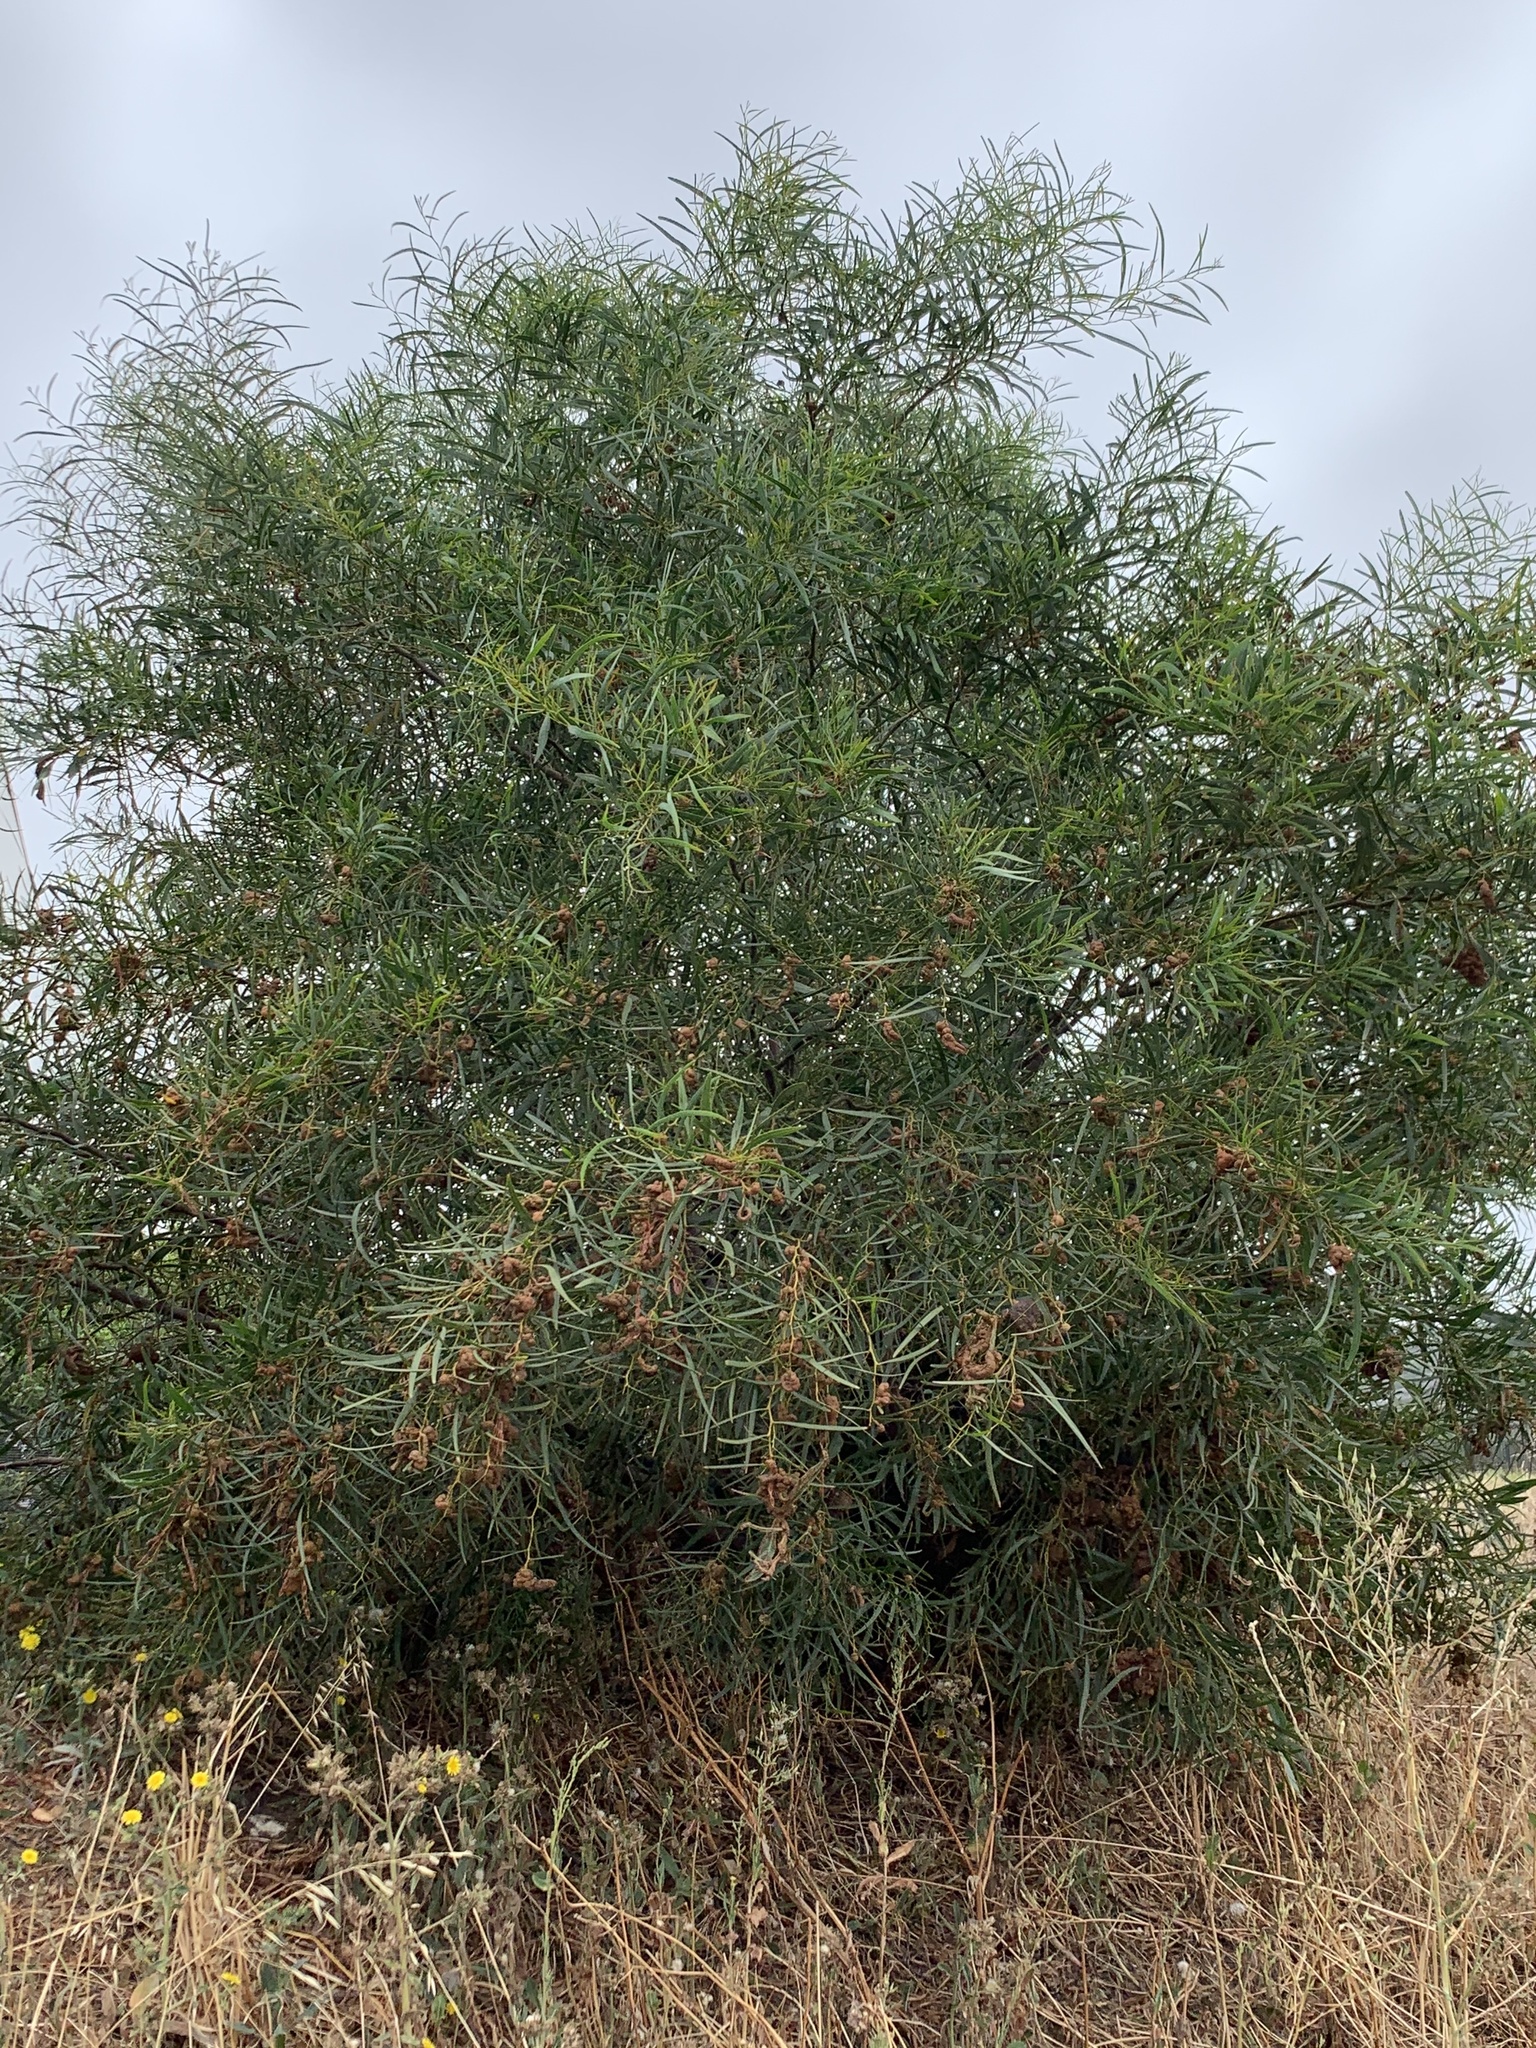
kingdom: Plantae
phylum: Tracheophyta
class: Magnoliopsida
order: Fabales
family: Fabaceae
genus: Acacia
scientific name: Acacia saligna
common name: Orange wattle
